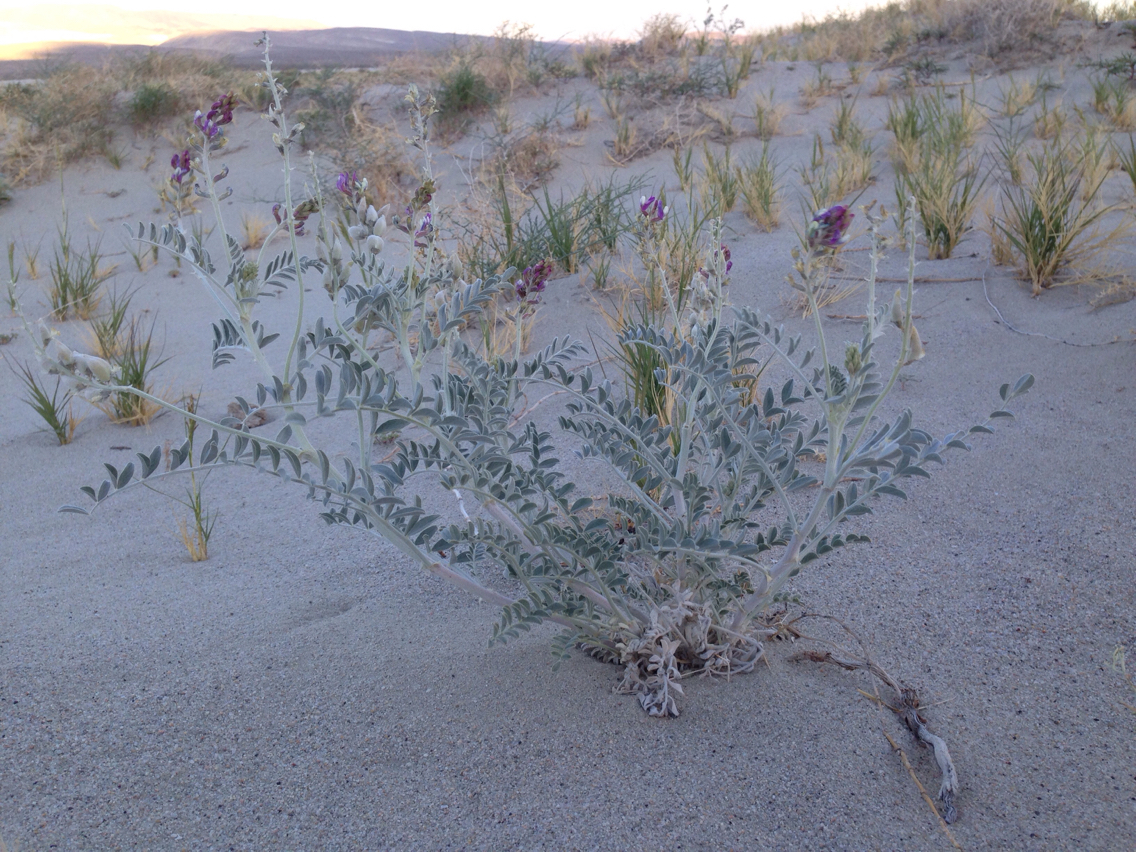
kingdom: Plantae
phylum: Tracheophyta
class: Magnoliopsida
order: Fabales
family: Fabaceae
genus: Astragalus
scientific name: Astragalus lentiginosus
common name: Freckled milkvetch
